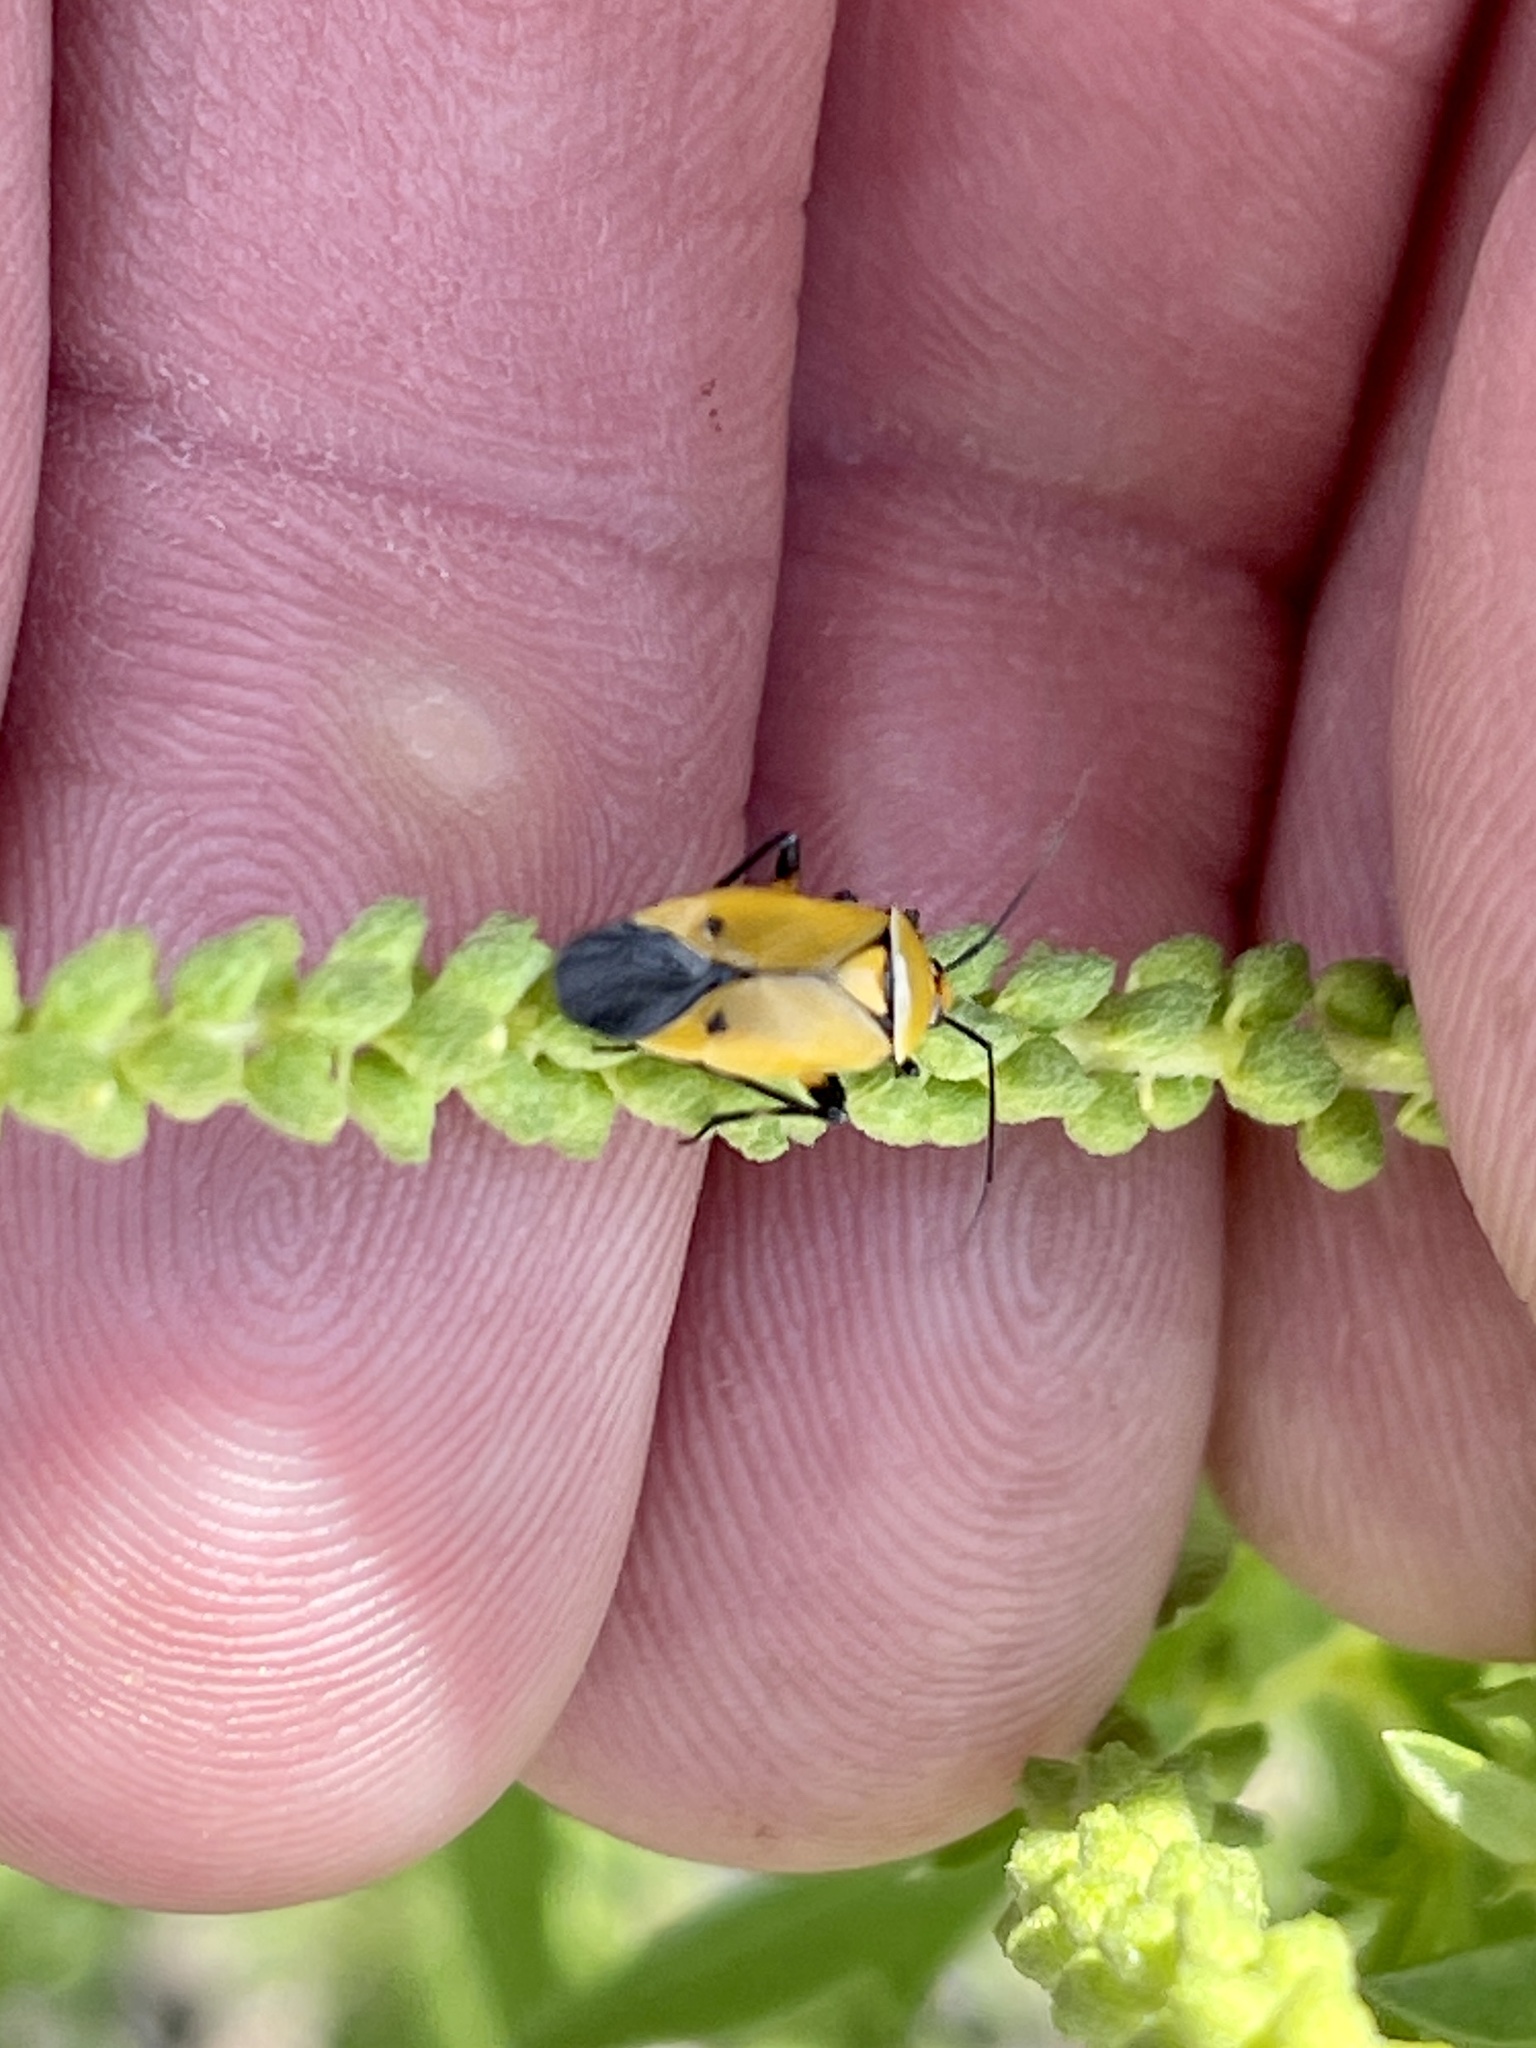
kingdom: Animalia
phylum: Arthropoda
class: Insecta
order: Hemiptera
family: Miridae
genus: Neocapsus
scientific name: Neocapsus fasciativentris
